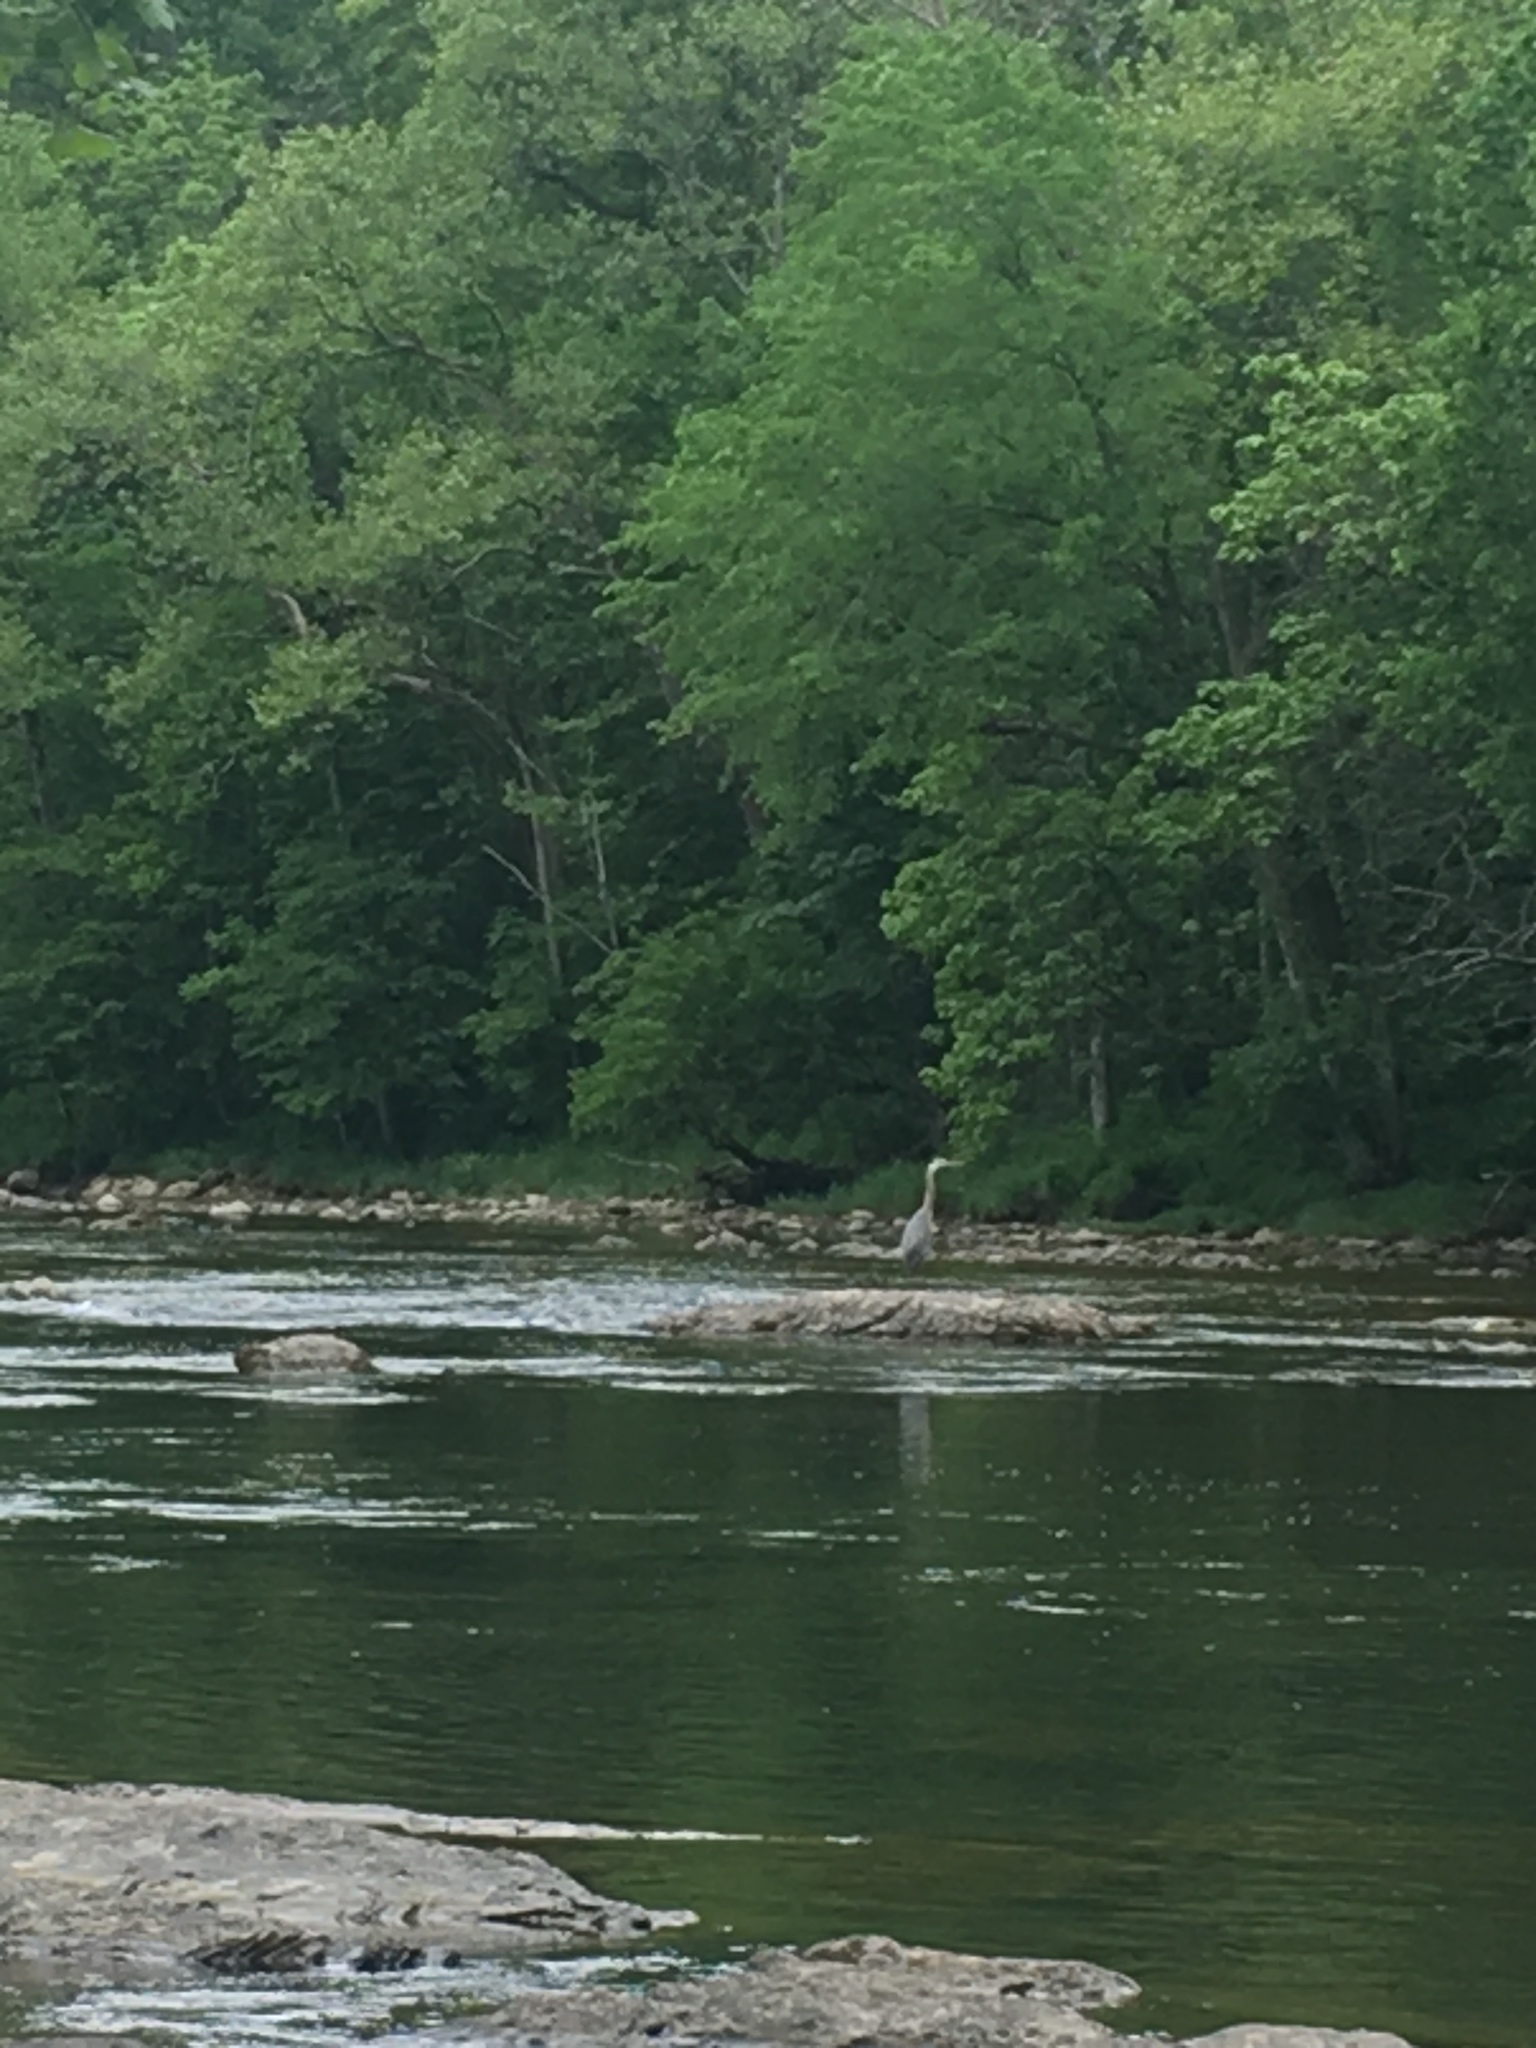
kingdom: Animalia
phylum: Chordata
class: Aves
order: Pelecaniformes
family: Ardeidae
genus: Ardea
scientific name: Ardea herodias
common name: Great blue heron
